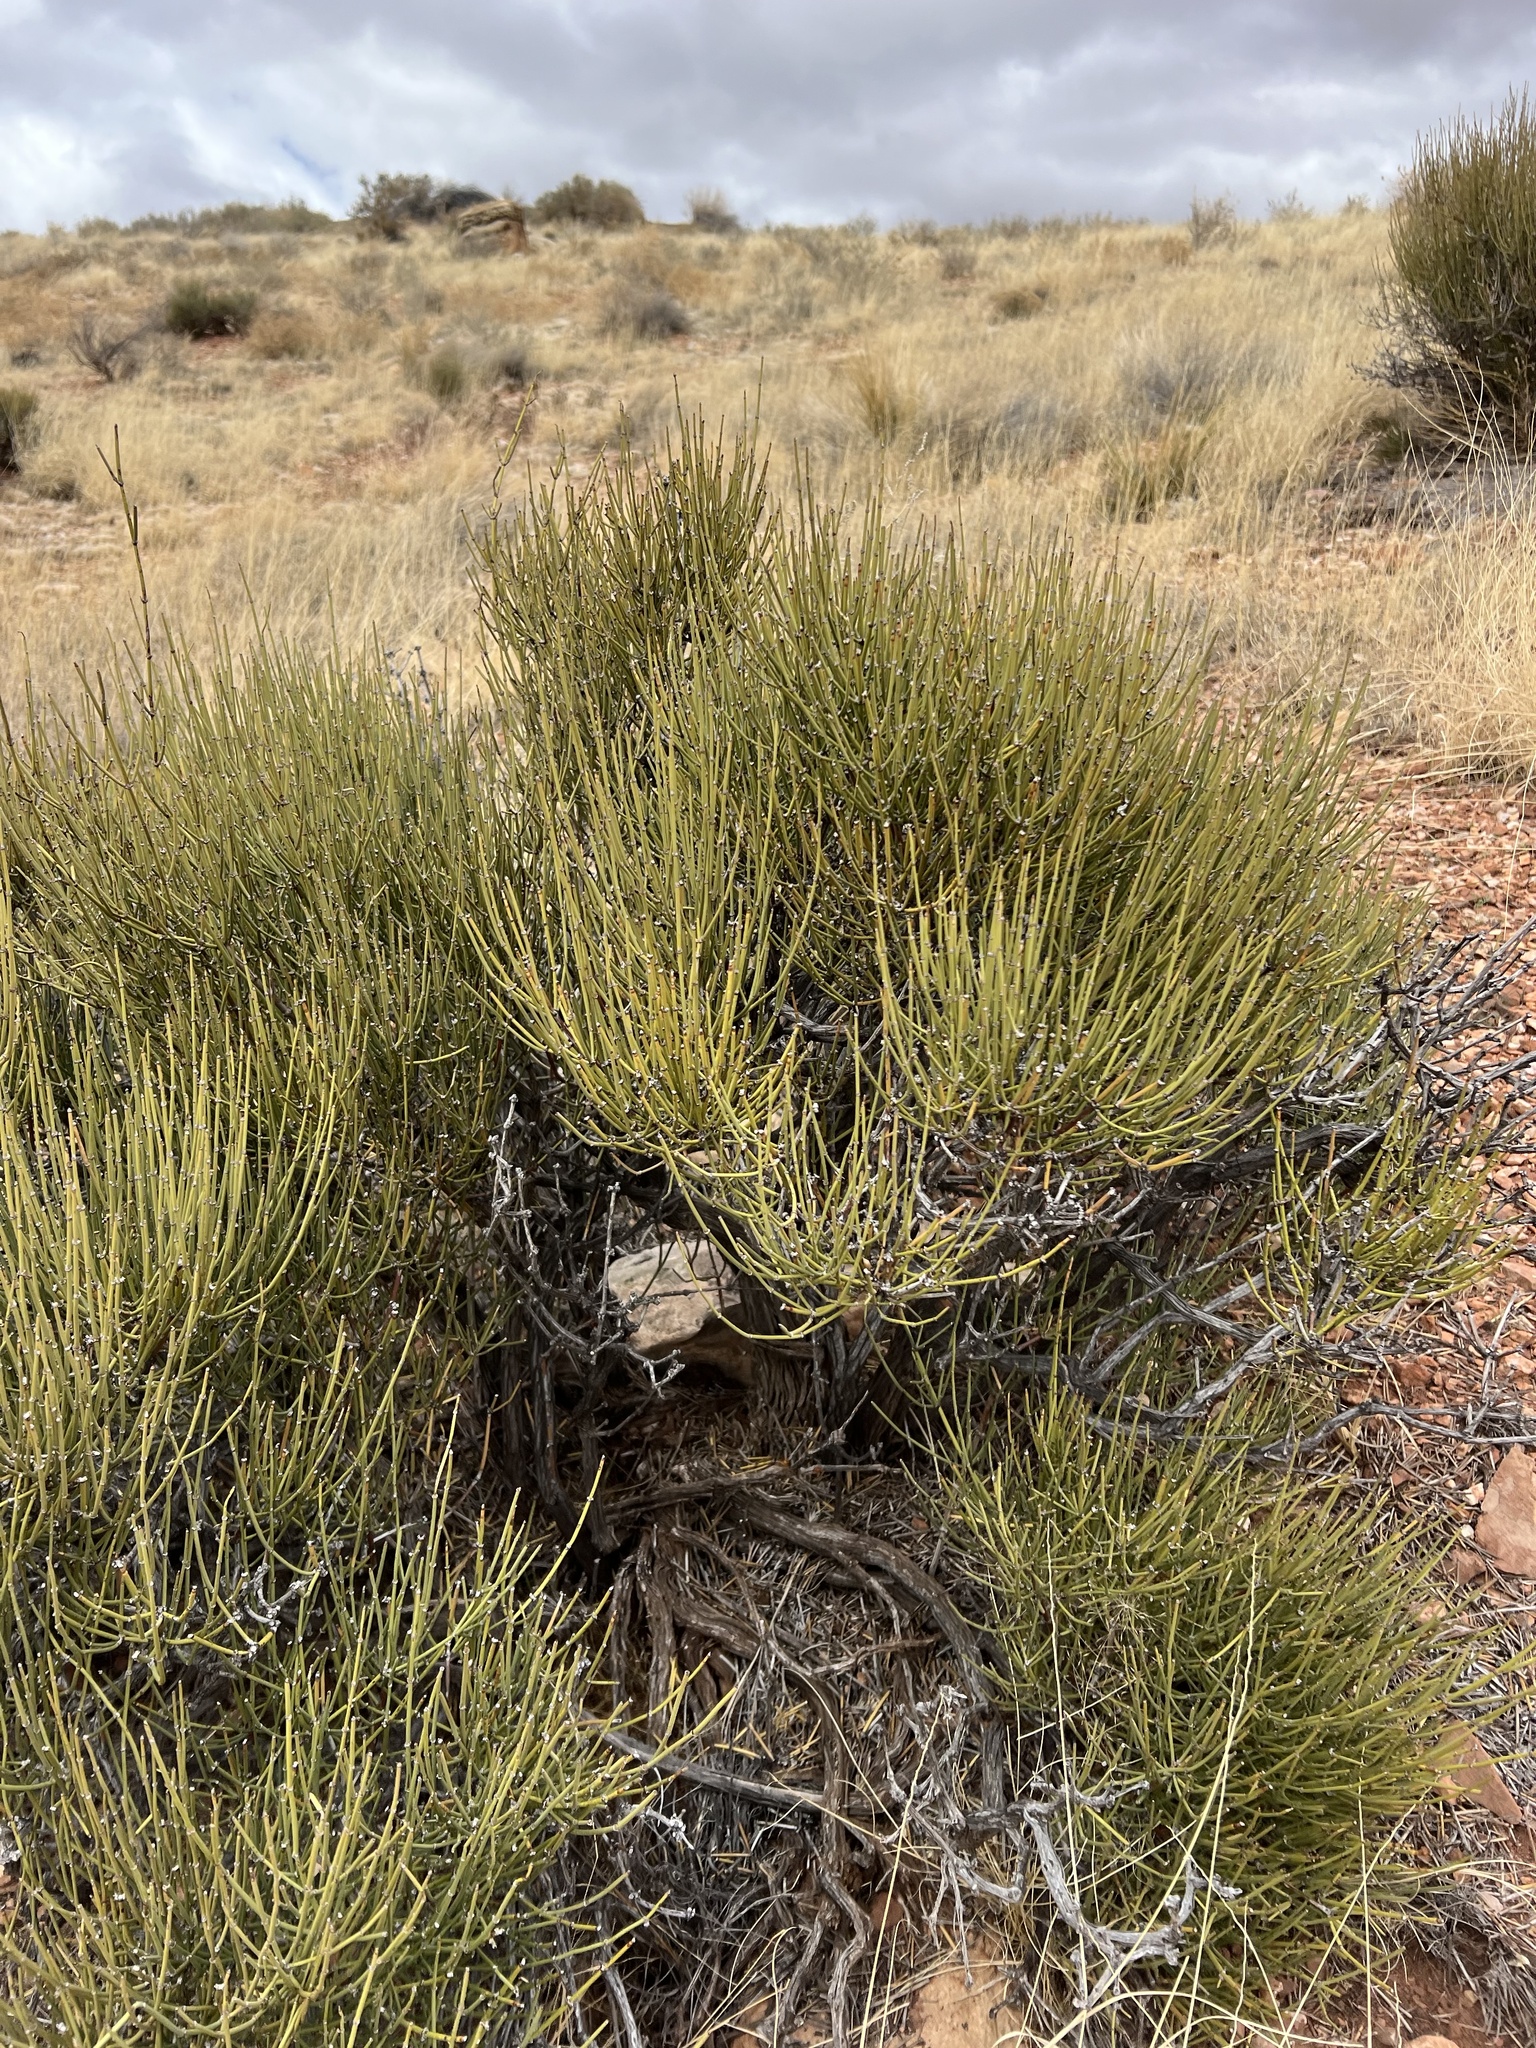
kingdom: Plantae
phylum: Tracheophyta
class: Gnetopsida
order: Ephedrales
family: Ephedraceae
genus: Ephedra
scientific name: Ephedra viridis
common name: Green ephedra
